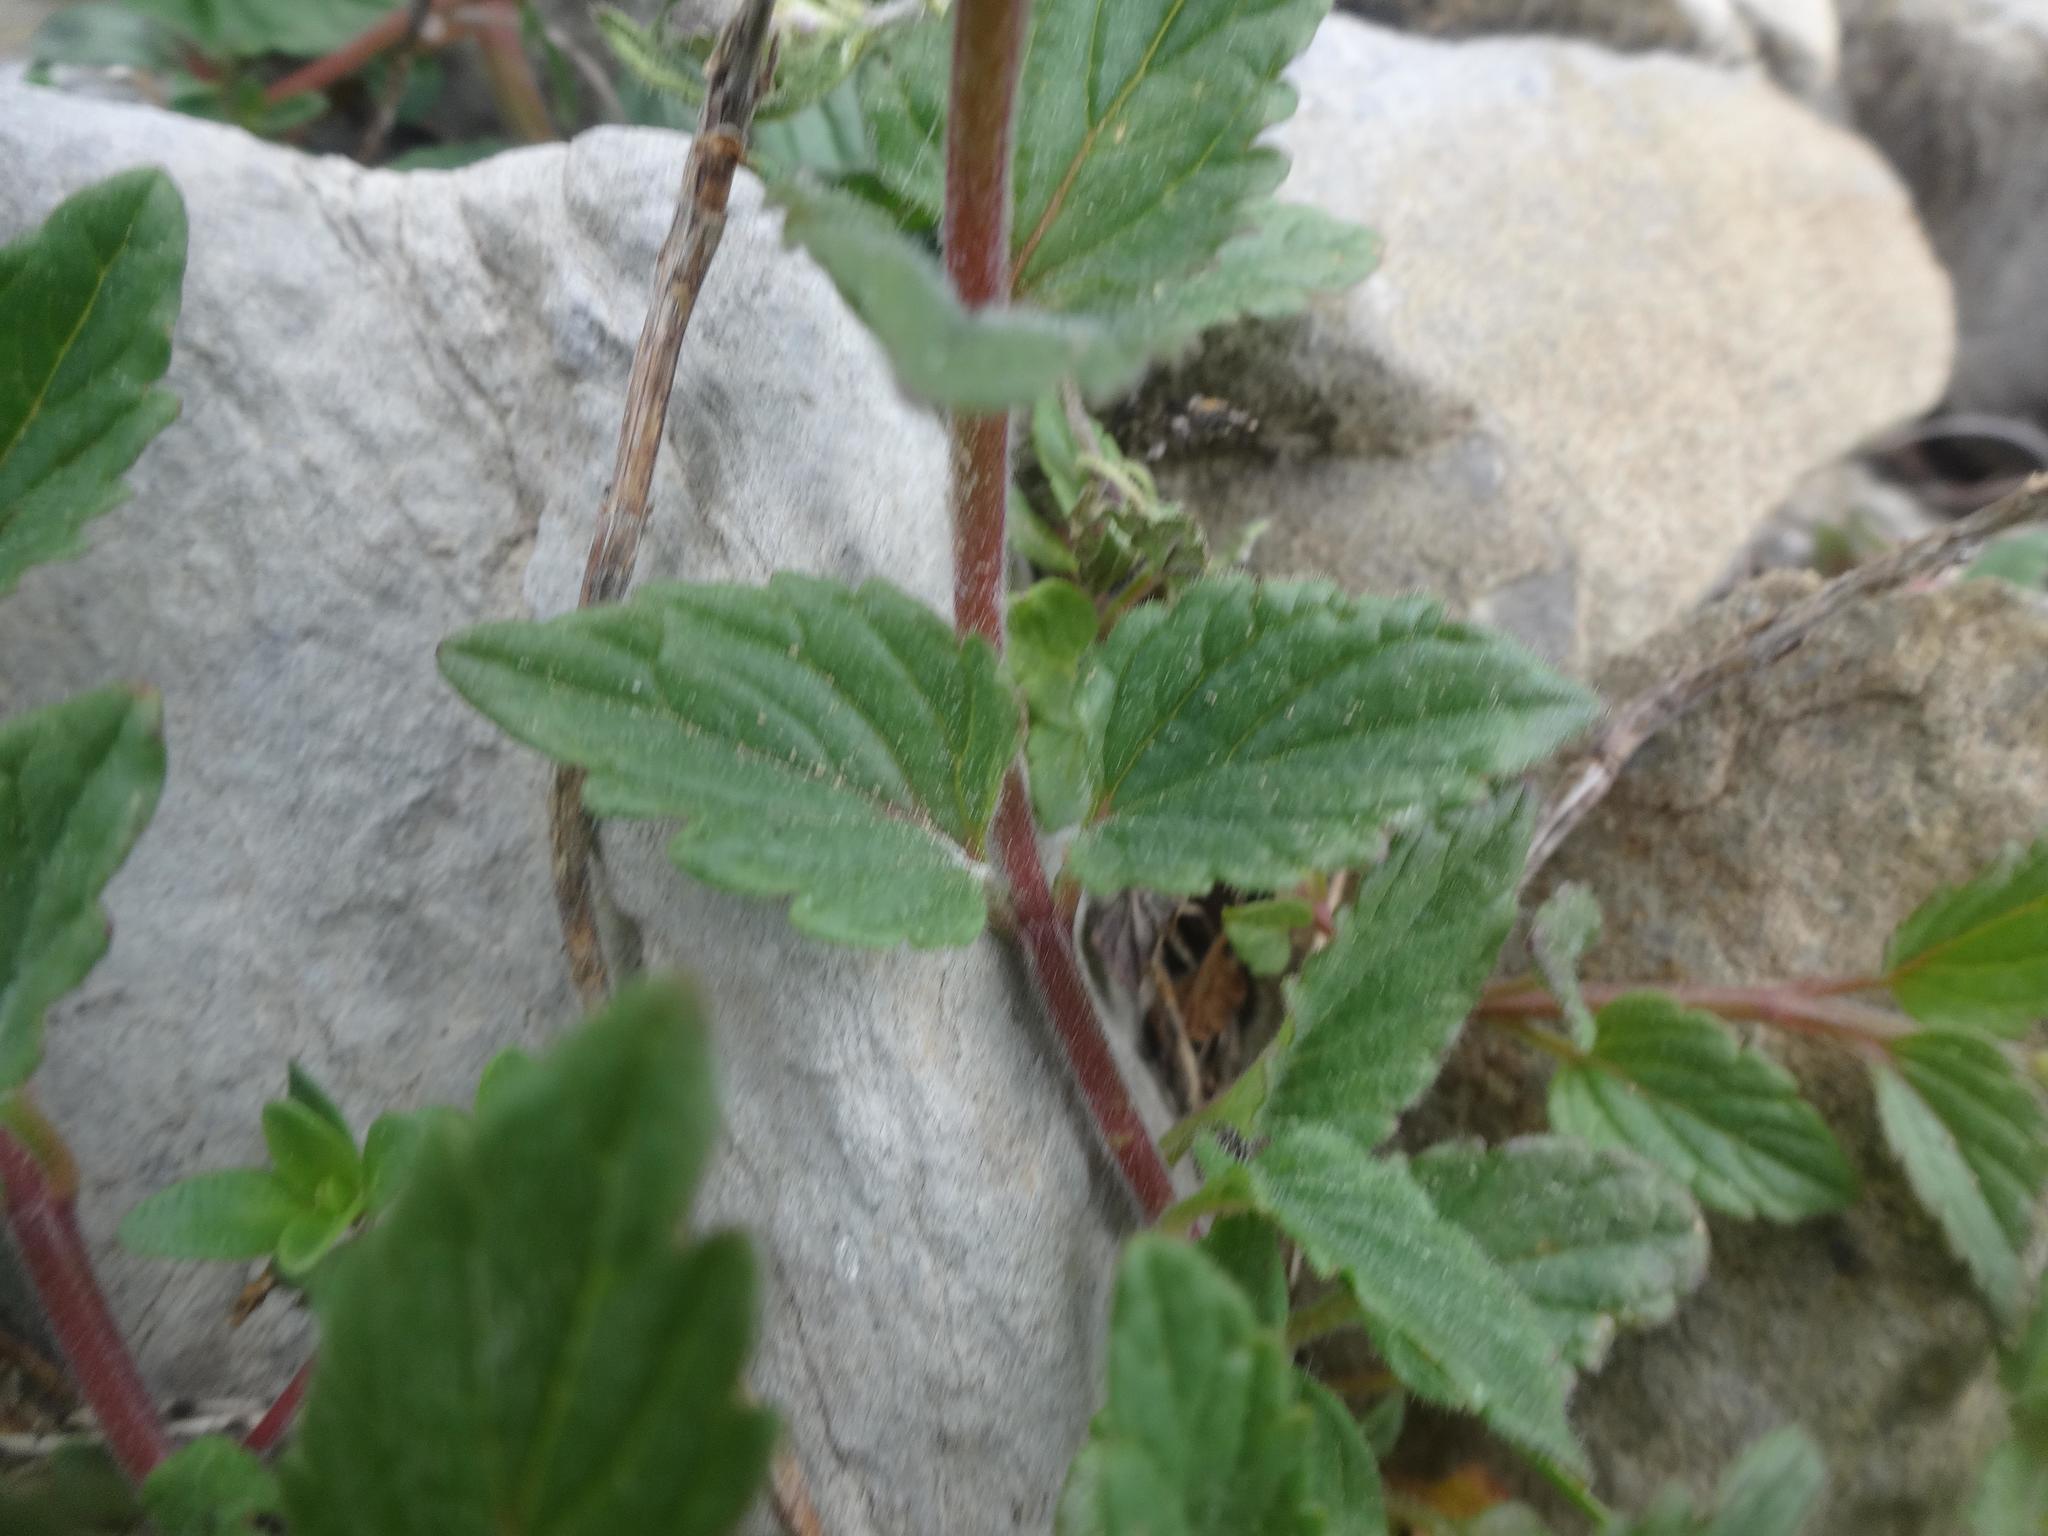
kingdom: Plantae
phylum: Tracheophyta
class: Magnoliopsida
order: Lamiales
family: Lamiaceae
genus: Scutellaria
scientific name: Scutellaria alpina
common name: Alpine scullcap
